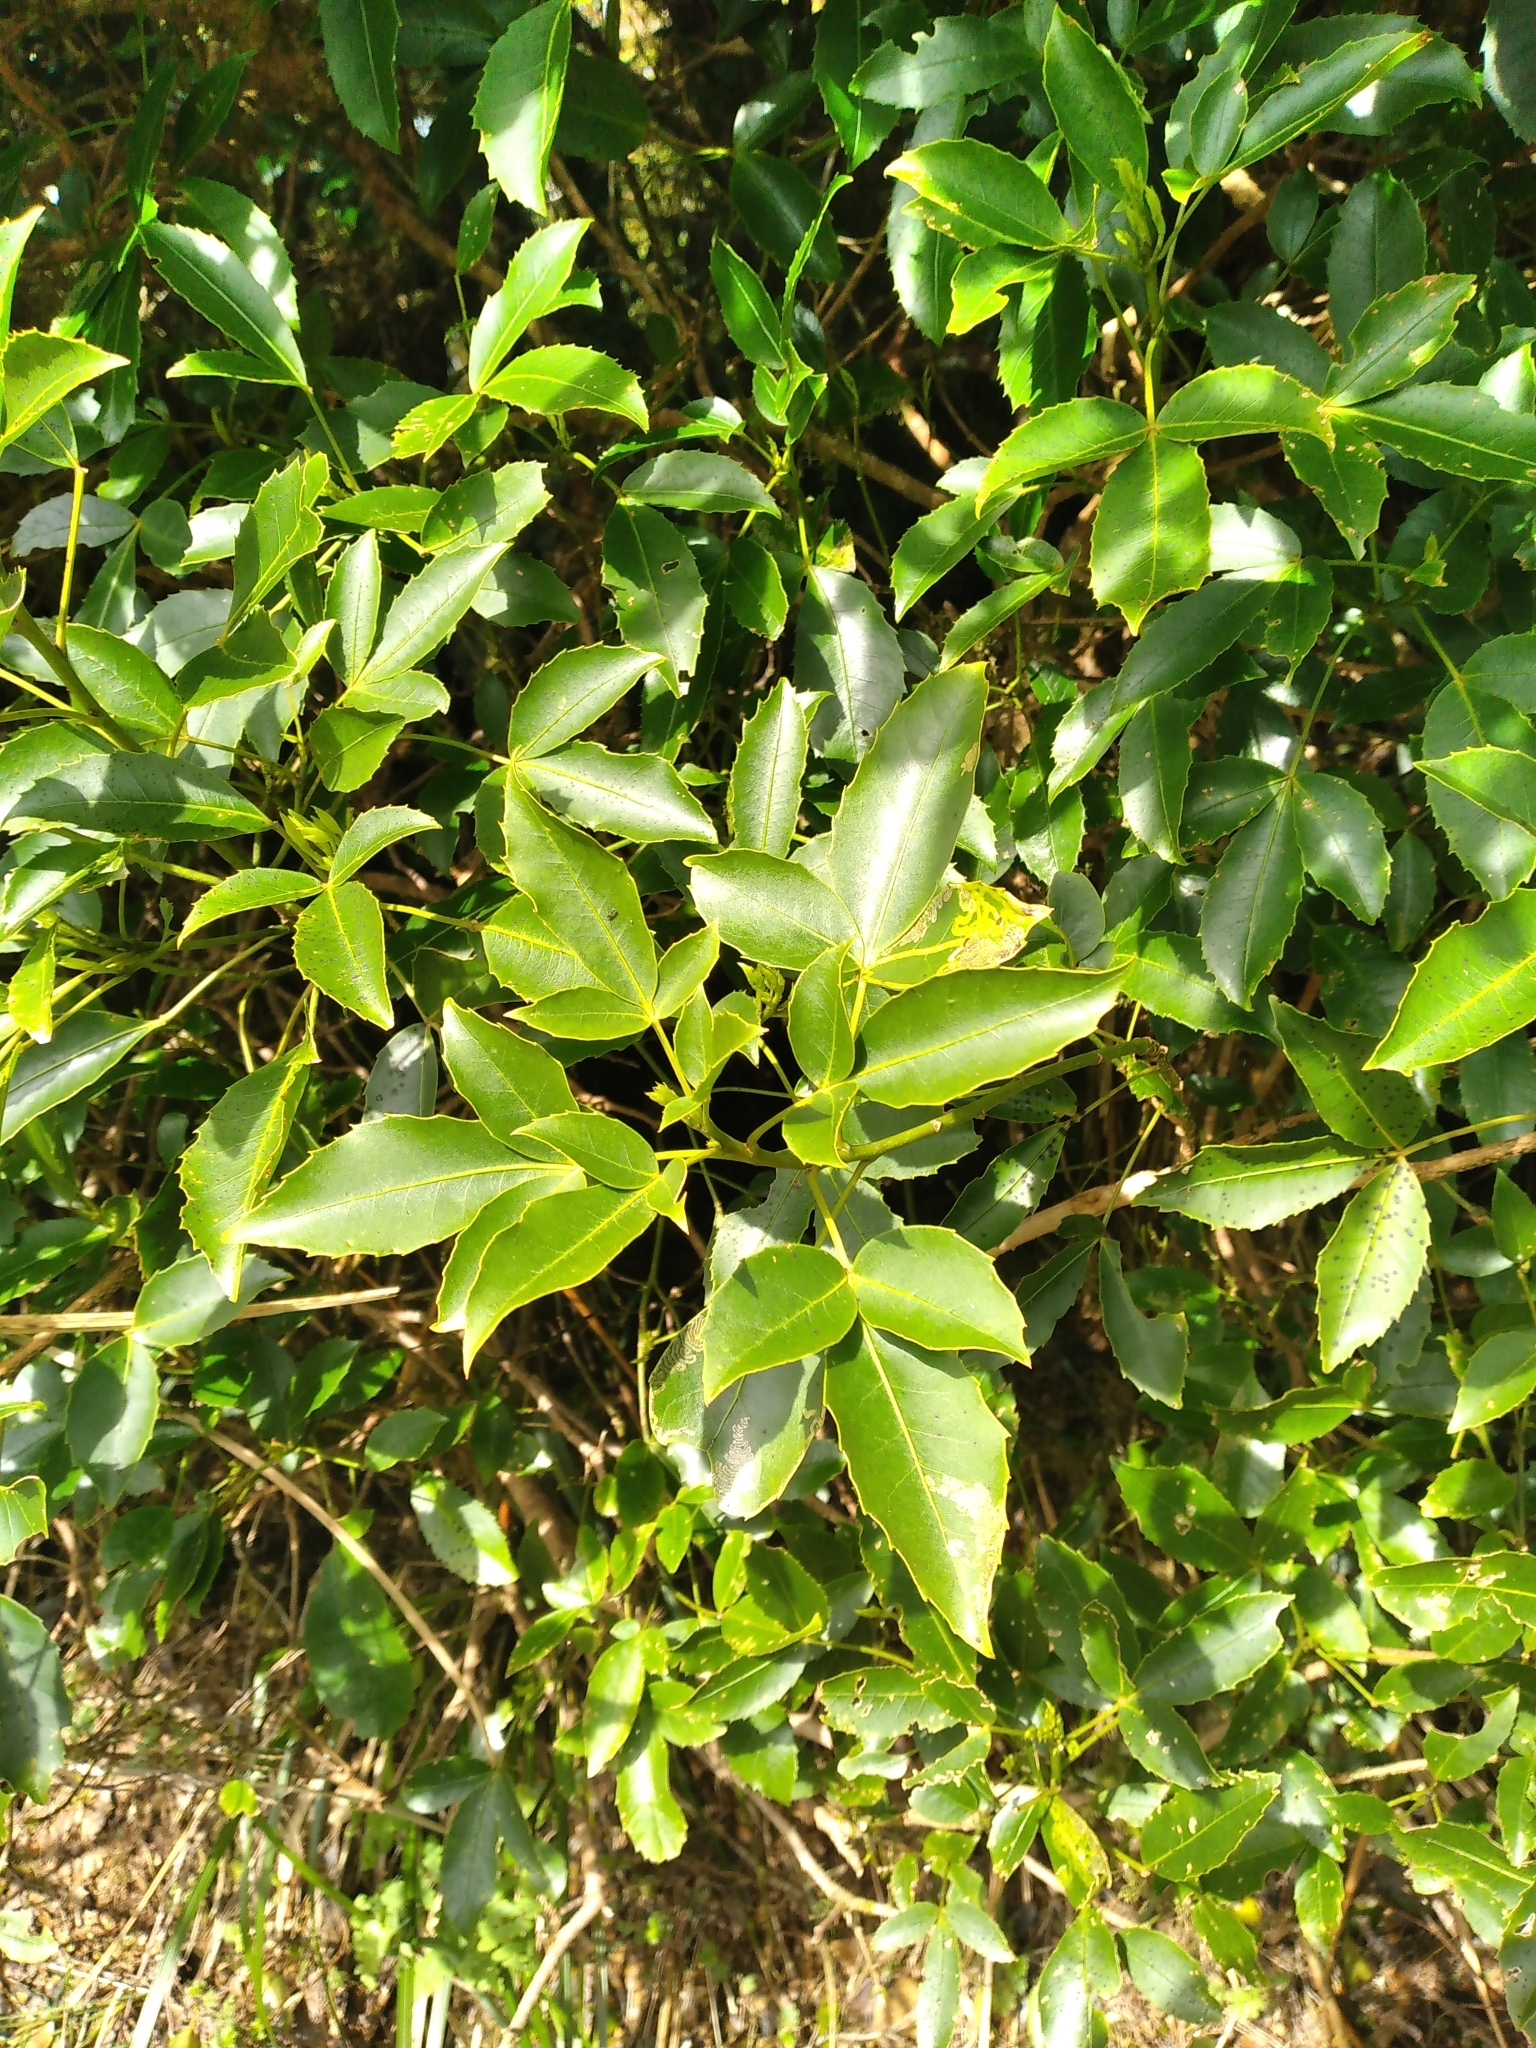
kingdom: Plantae
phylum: Tracheophyta
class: Magnoliopsida
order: Apiales
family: Araliaceae
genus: Raukaua
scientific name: Raukaua simplex
